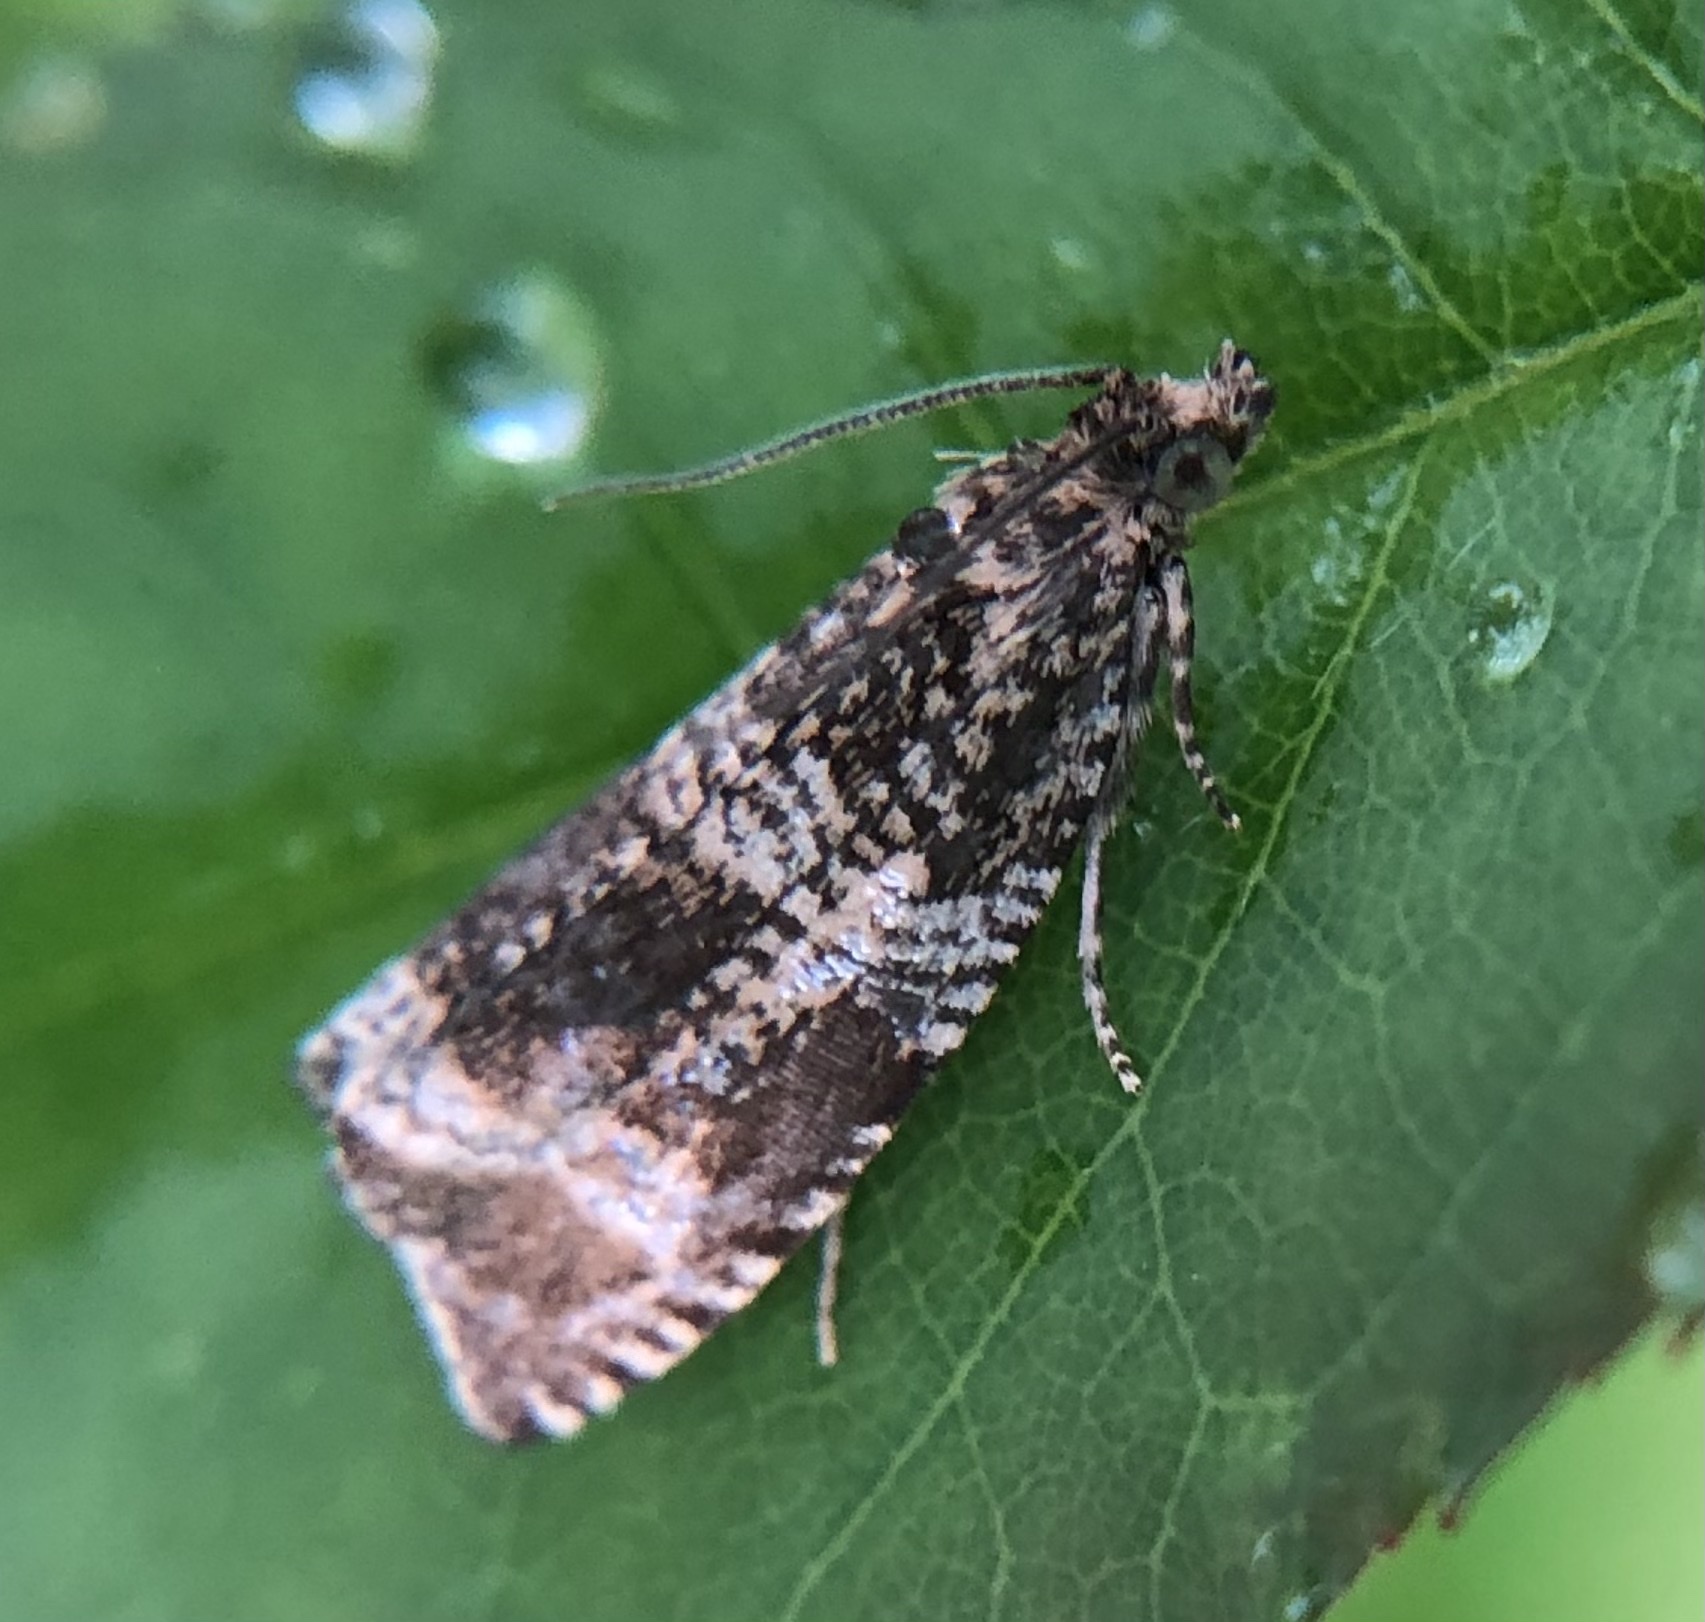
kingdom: Animalia
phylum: Arthropoda
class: Insecta
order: Lepidoptera
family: Tortricidae
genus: Syricoris
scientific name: Syricoris lacunana
